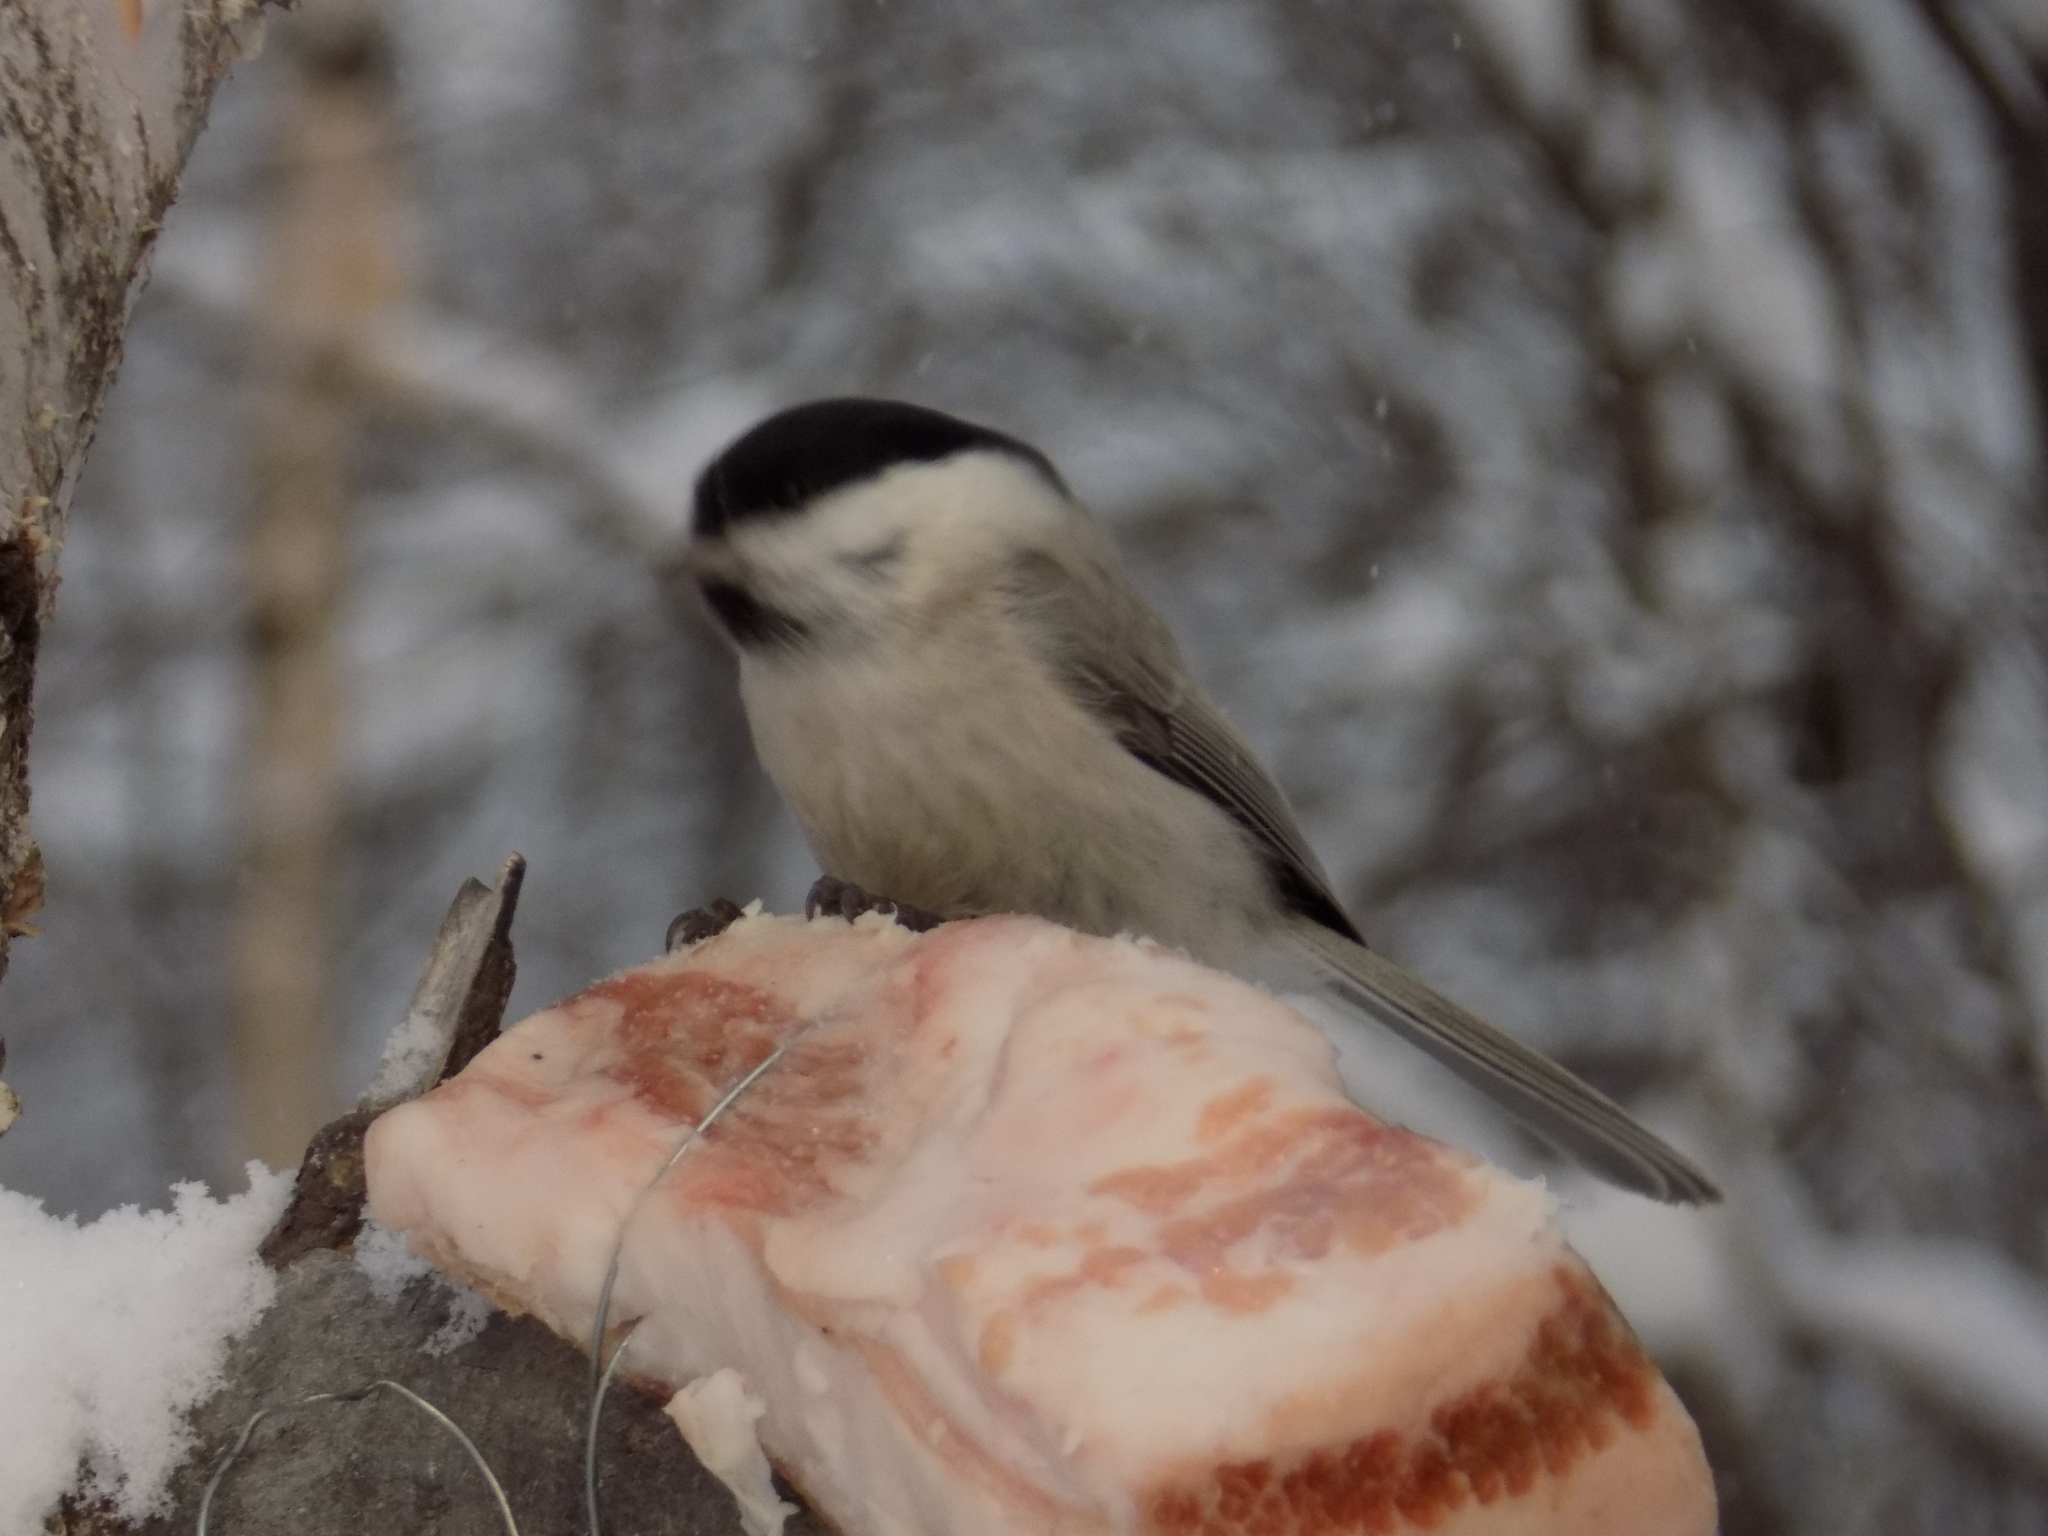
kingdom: Animalia
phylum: Chordata
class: Aves
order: Passeriformes
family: Paridae
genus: Poecile
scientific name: Poecile palustris
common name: Marsh tit
